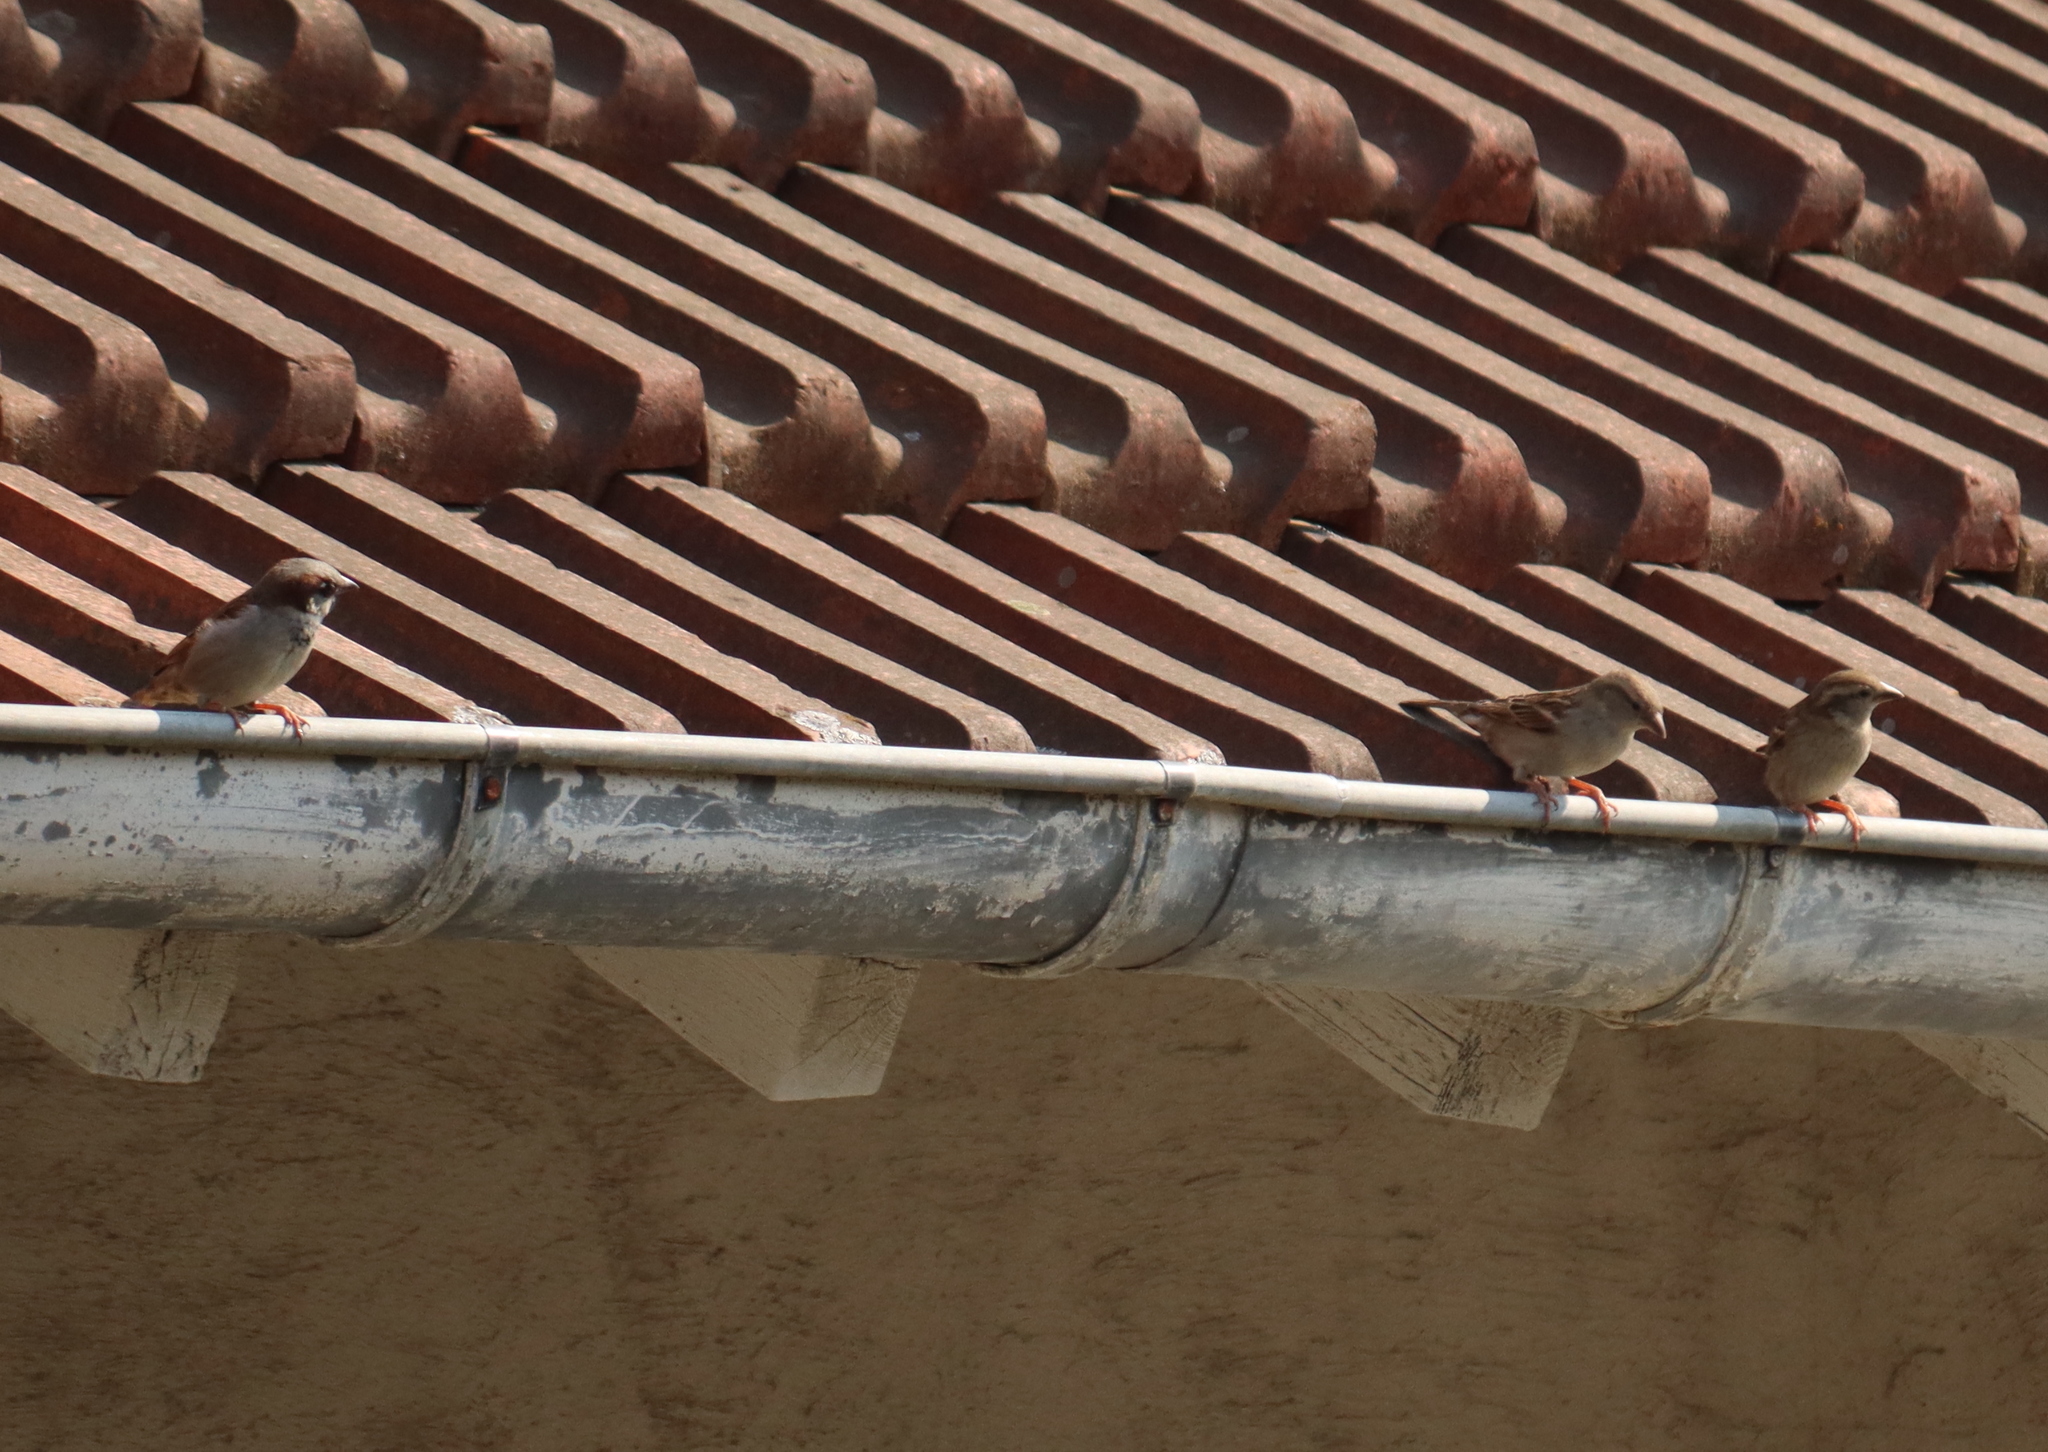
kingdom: Animalia
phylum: Chordata
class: Aves
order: Passeriformes
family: Passeridae
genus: Passer
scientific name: Passer domesticus
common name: House sparrow
